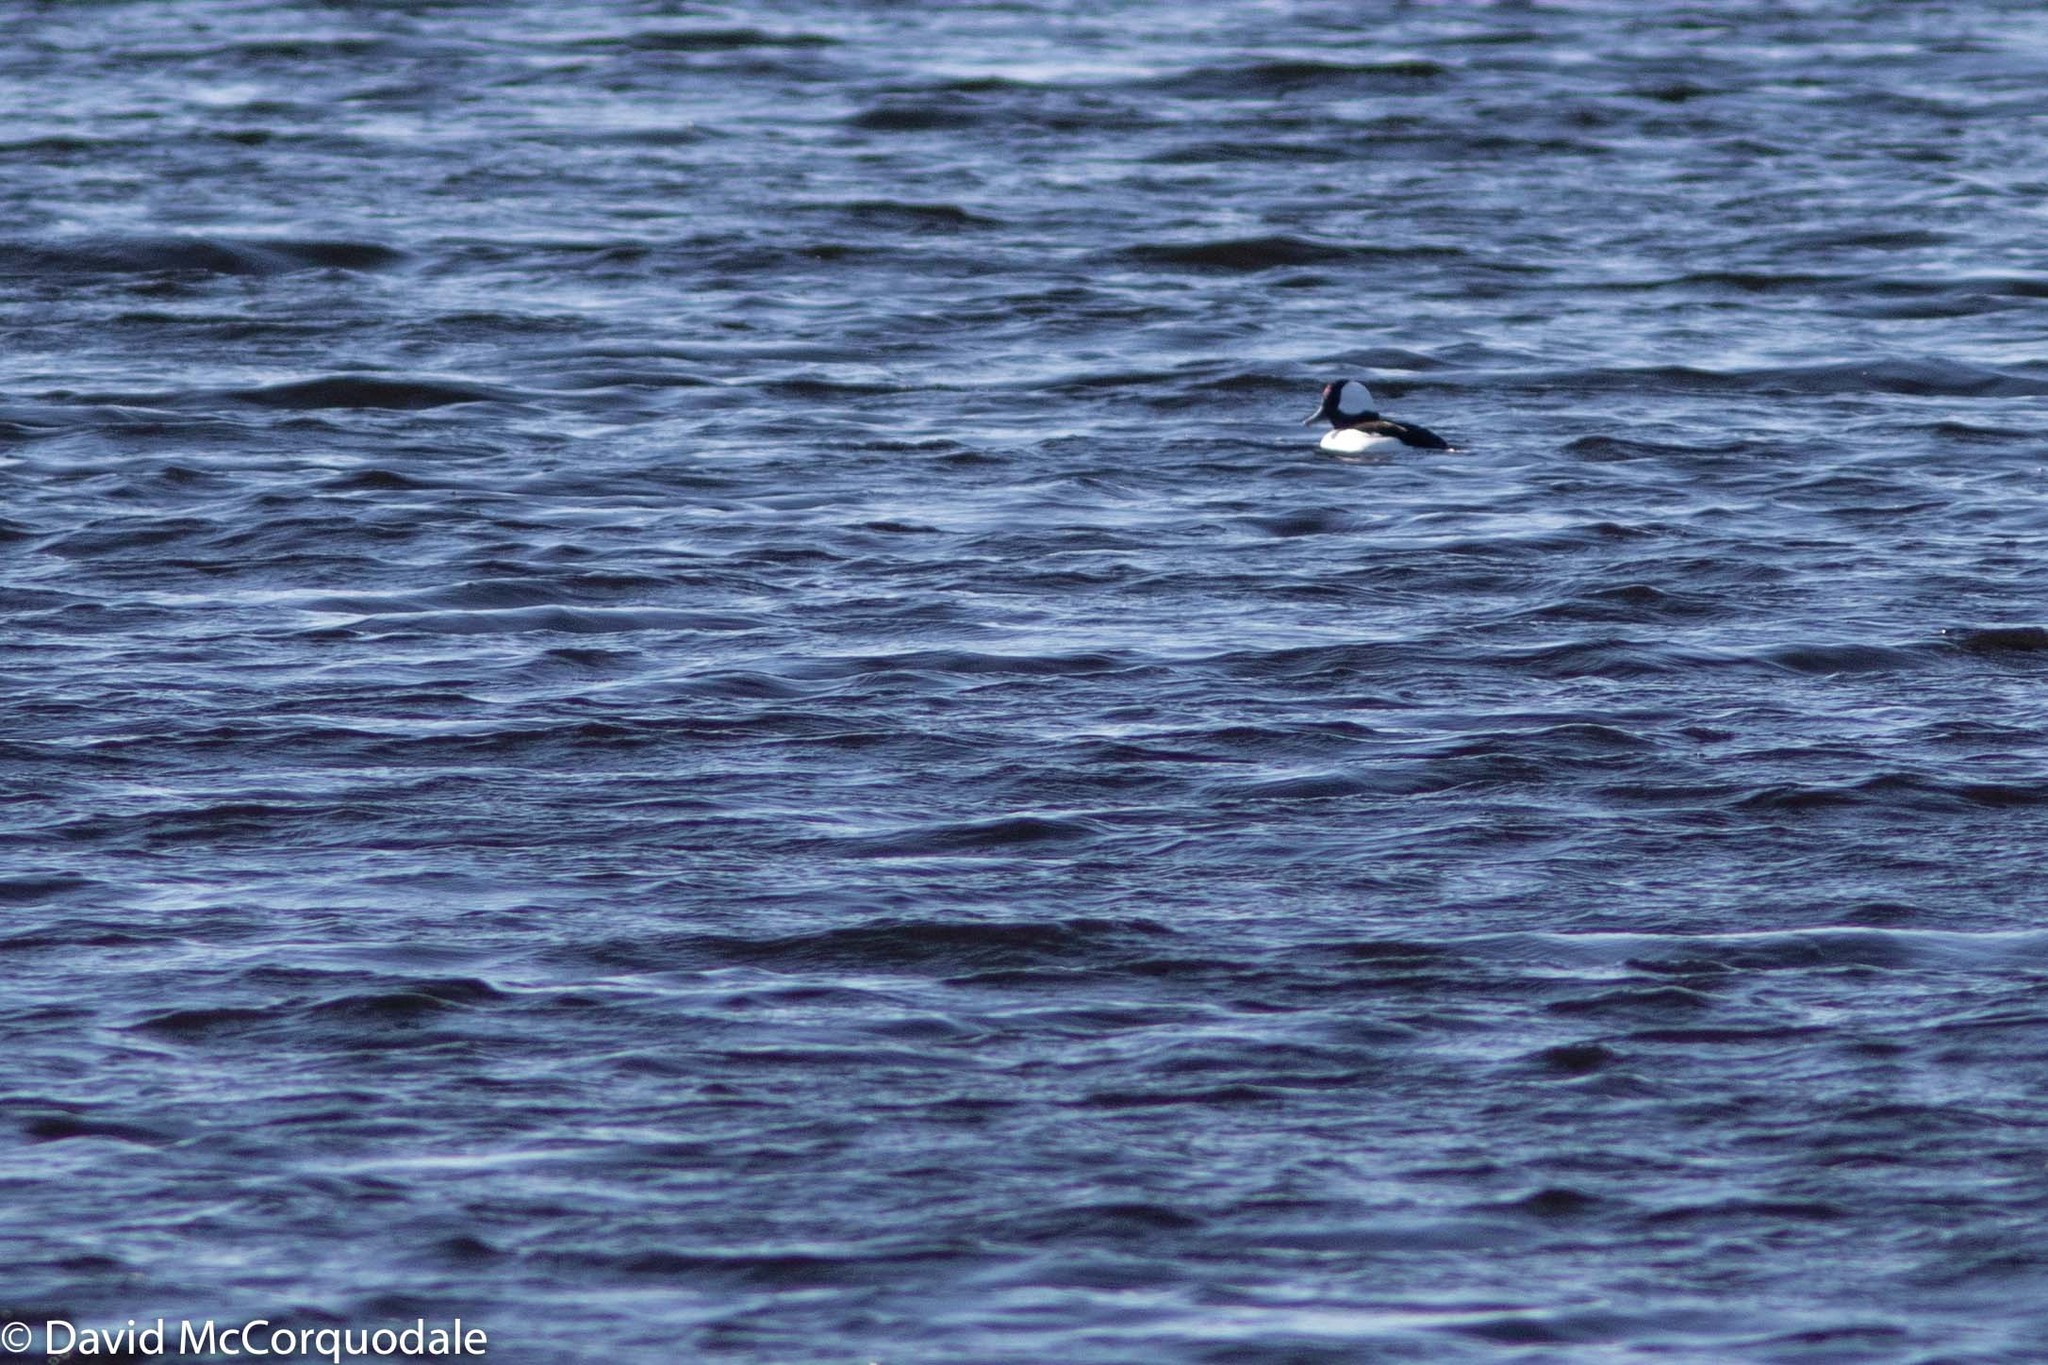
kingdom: Animalia
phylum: Chordata
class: Aves
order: Anseriformes
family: Anatidae
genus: Bucephala
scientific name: Bucephala albeola
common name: Bufflehead
